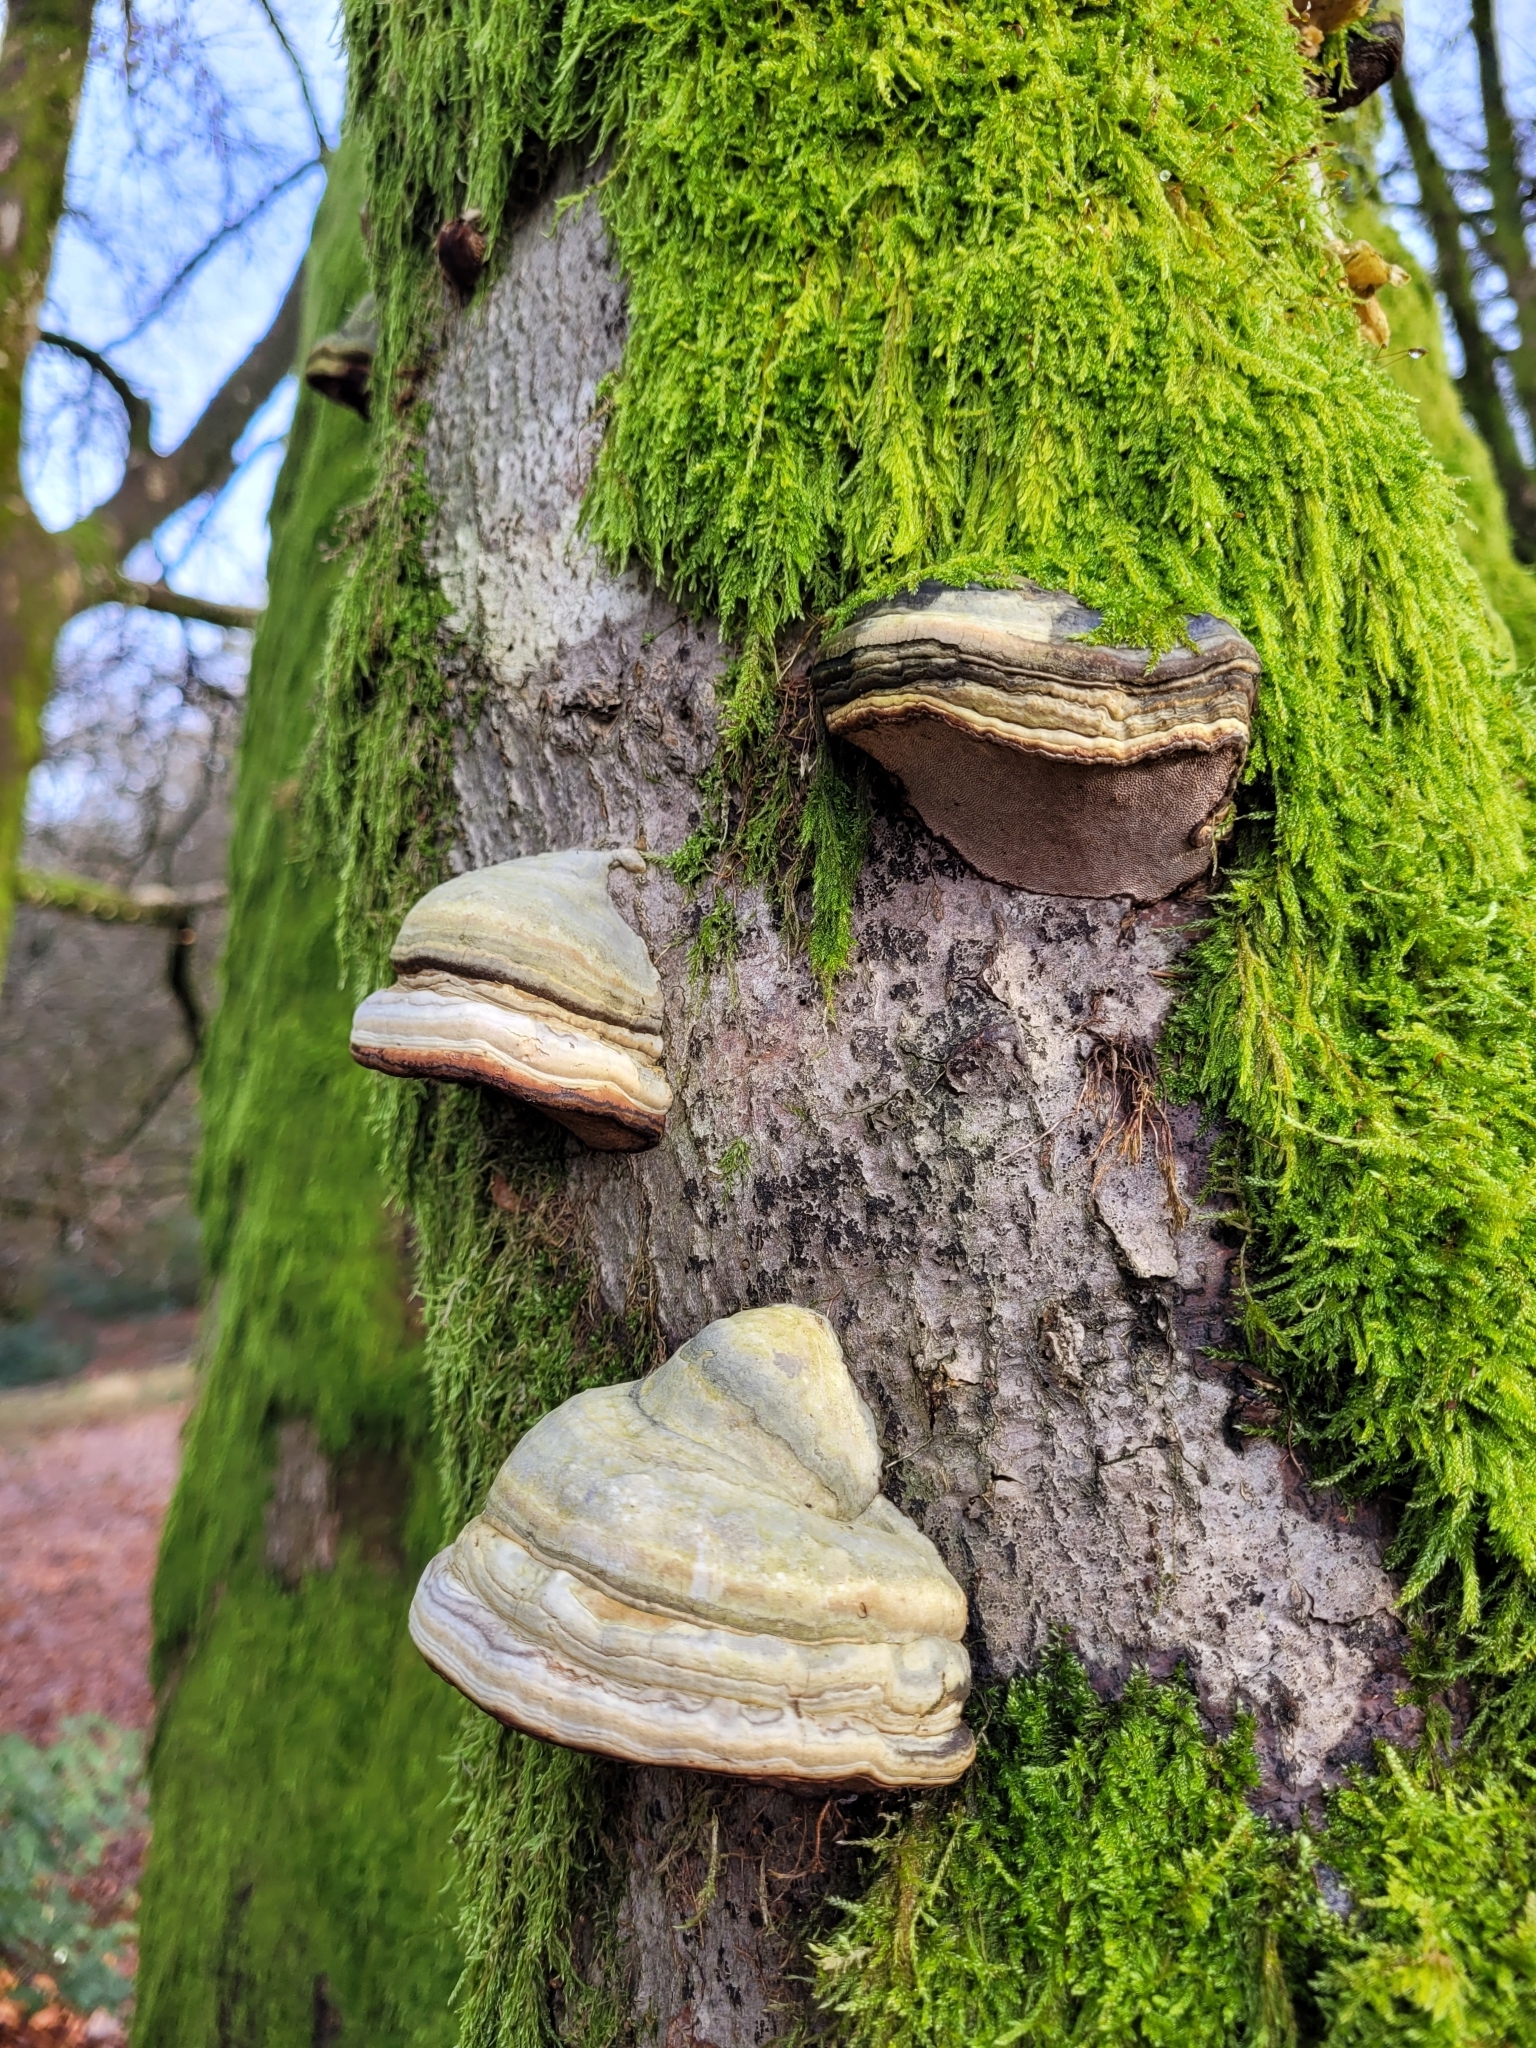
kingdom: Fungi
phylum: Basidiomycota
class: Agaricomycetes
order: Polyporales
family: Polyporaceae
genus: Fomes
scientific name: Fomes fomentarius
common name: Hoof fungus
